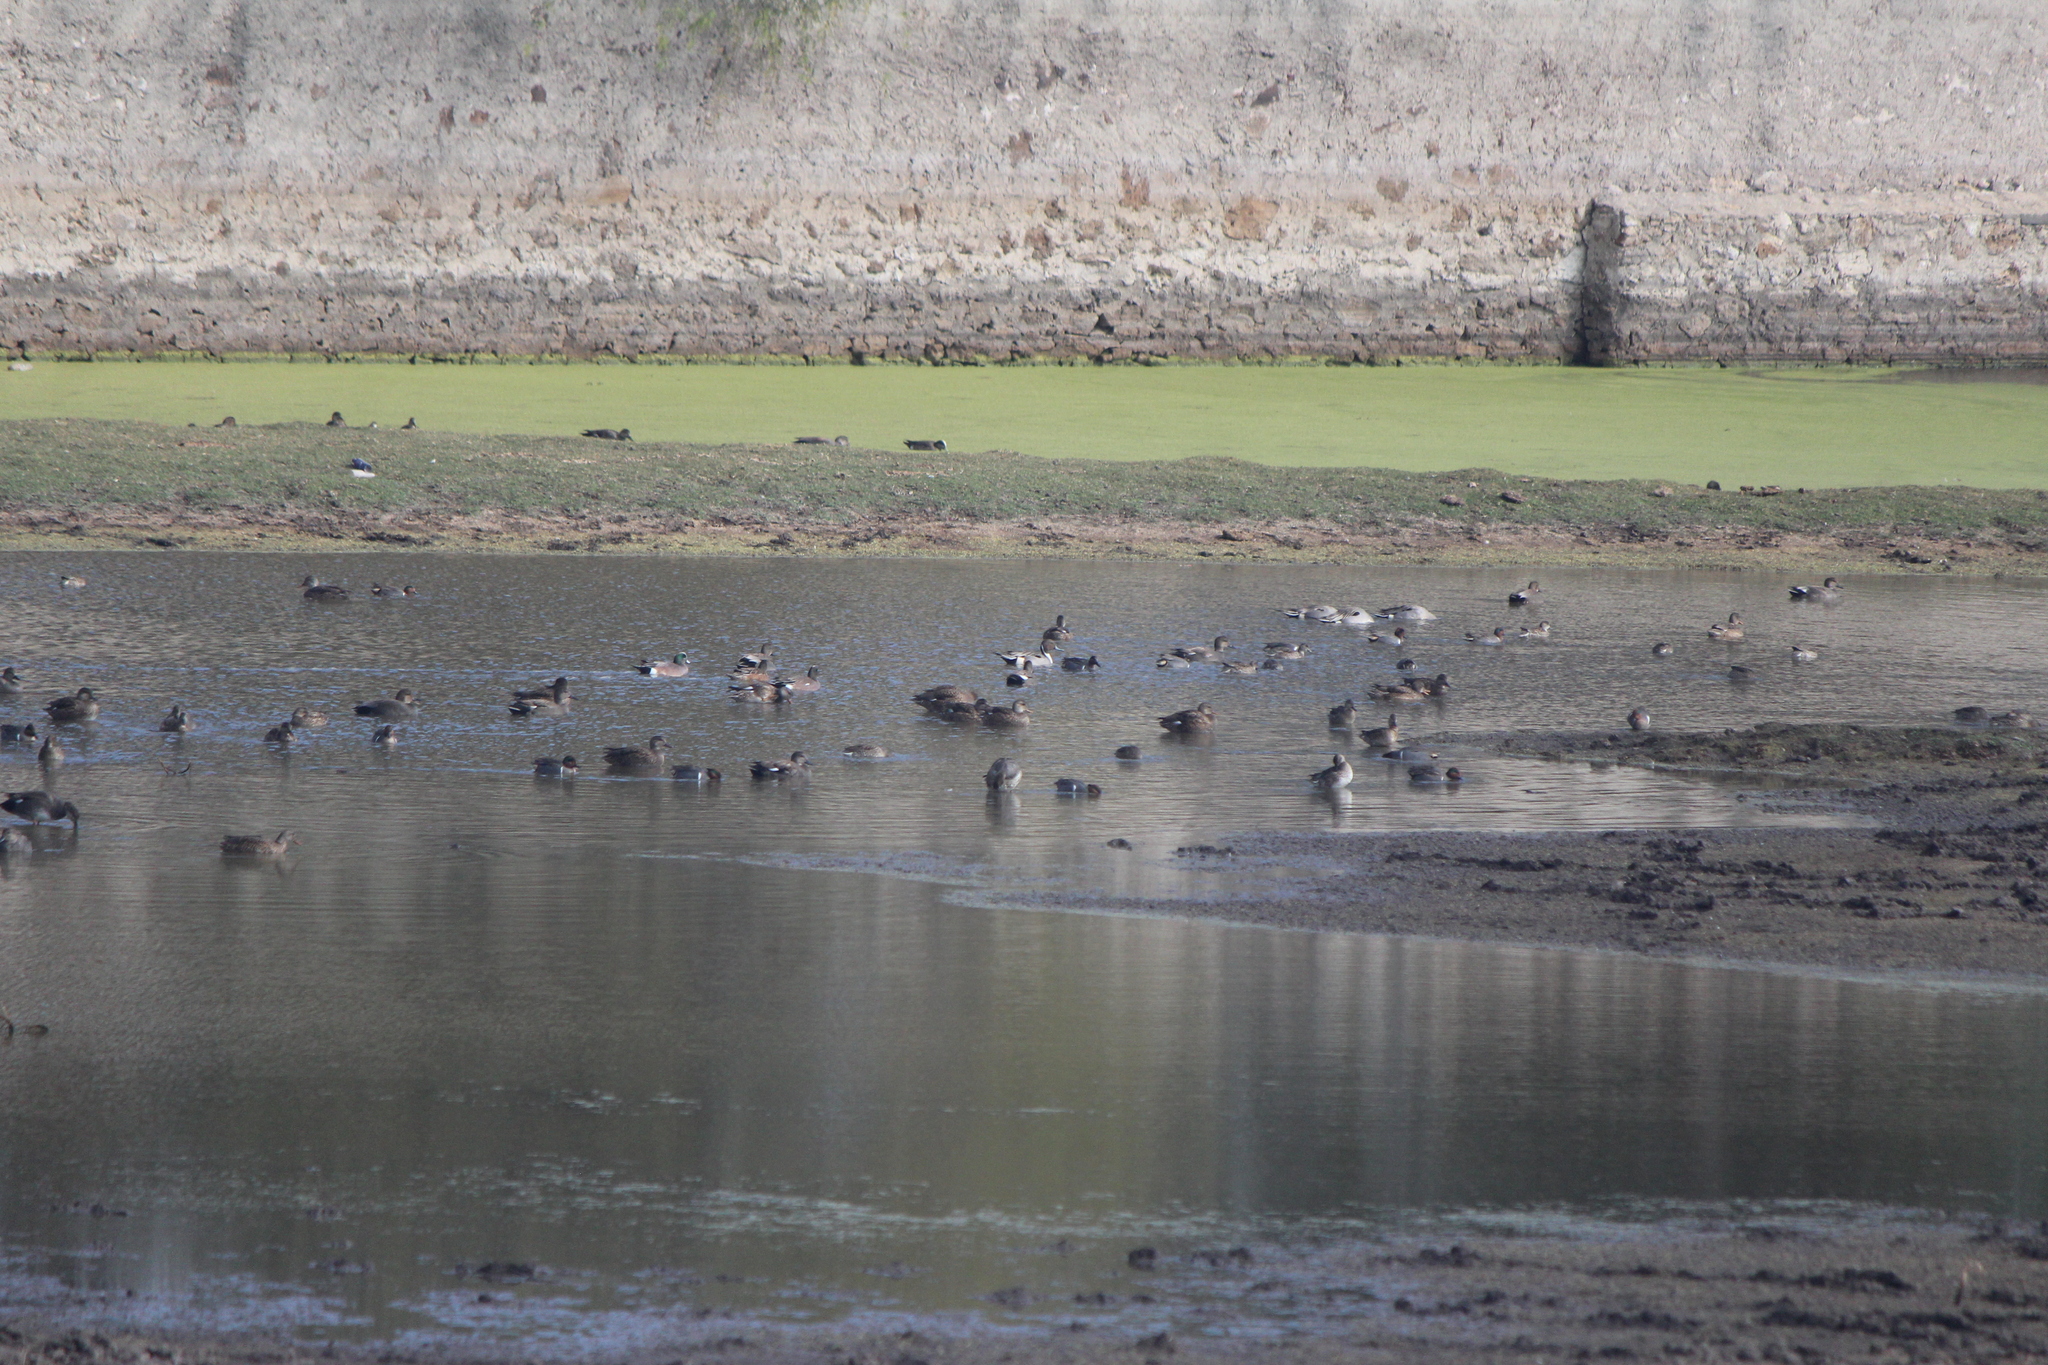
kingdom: Animalia
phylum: Chordata
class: Aves
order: Anseriformes
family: Anatidae
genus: Anas
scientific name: Anas acuta
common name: Northern pintail
